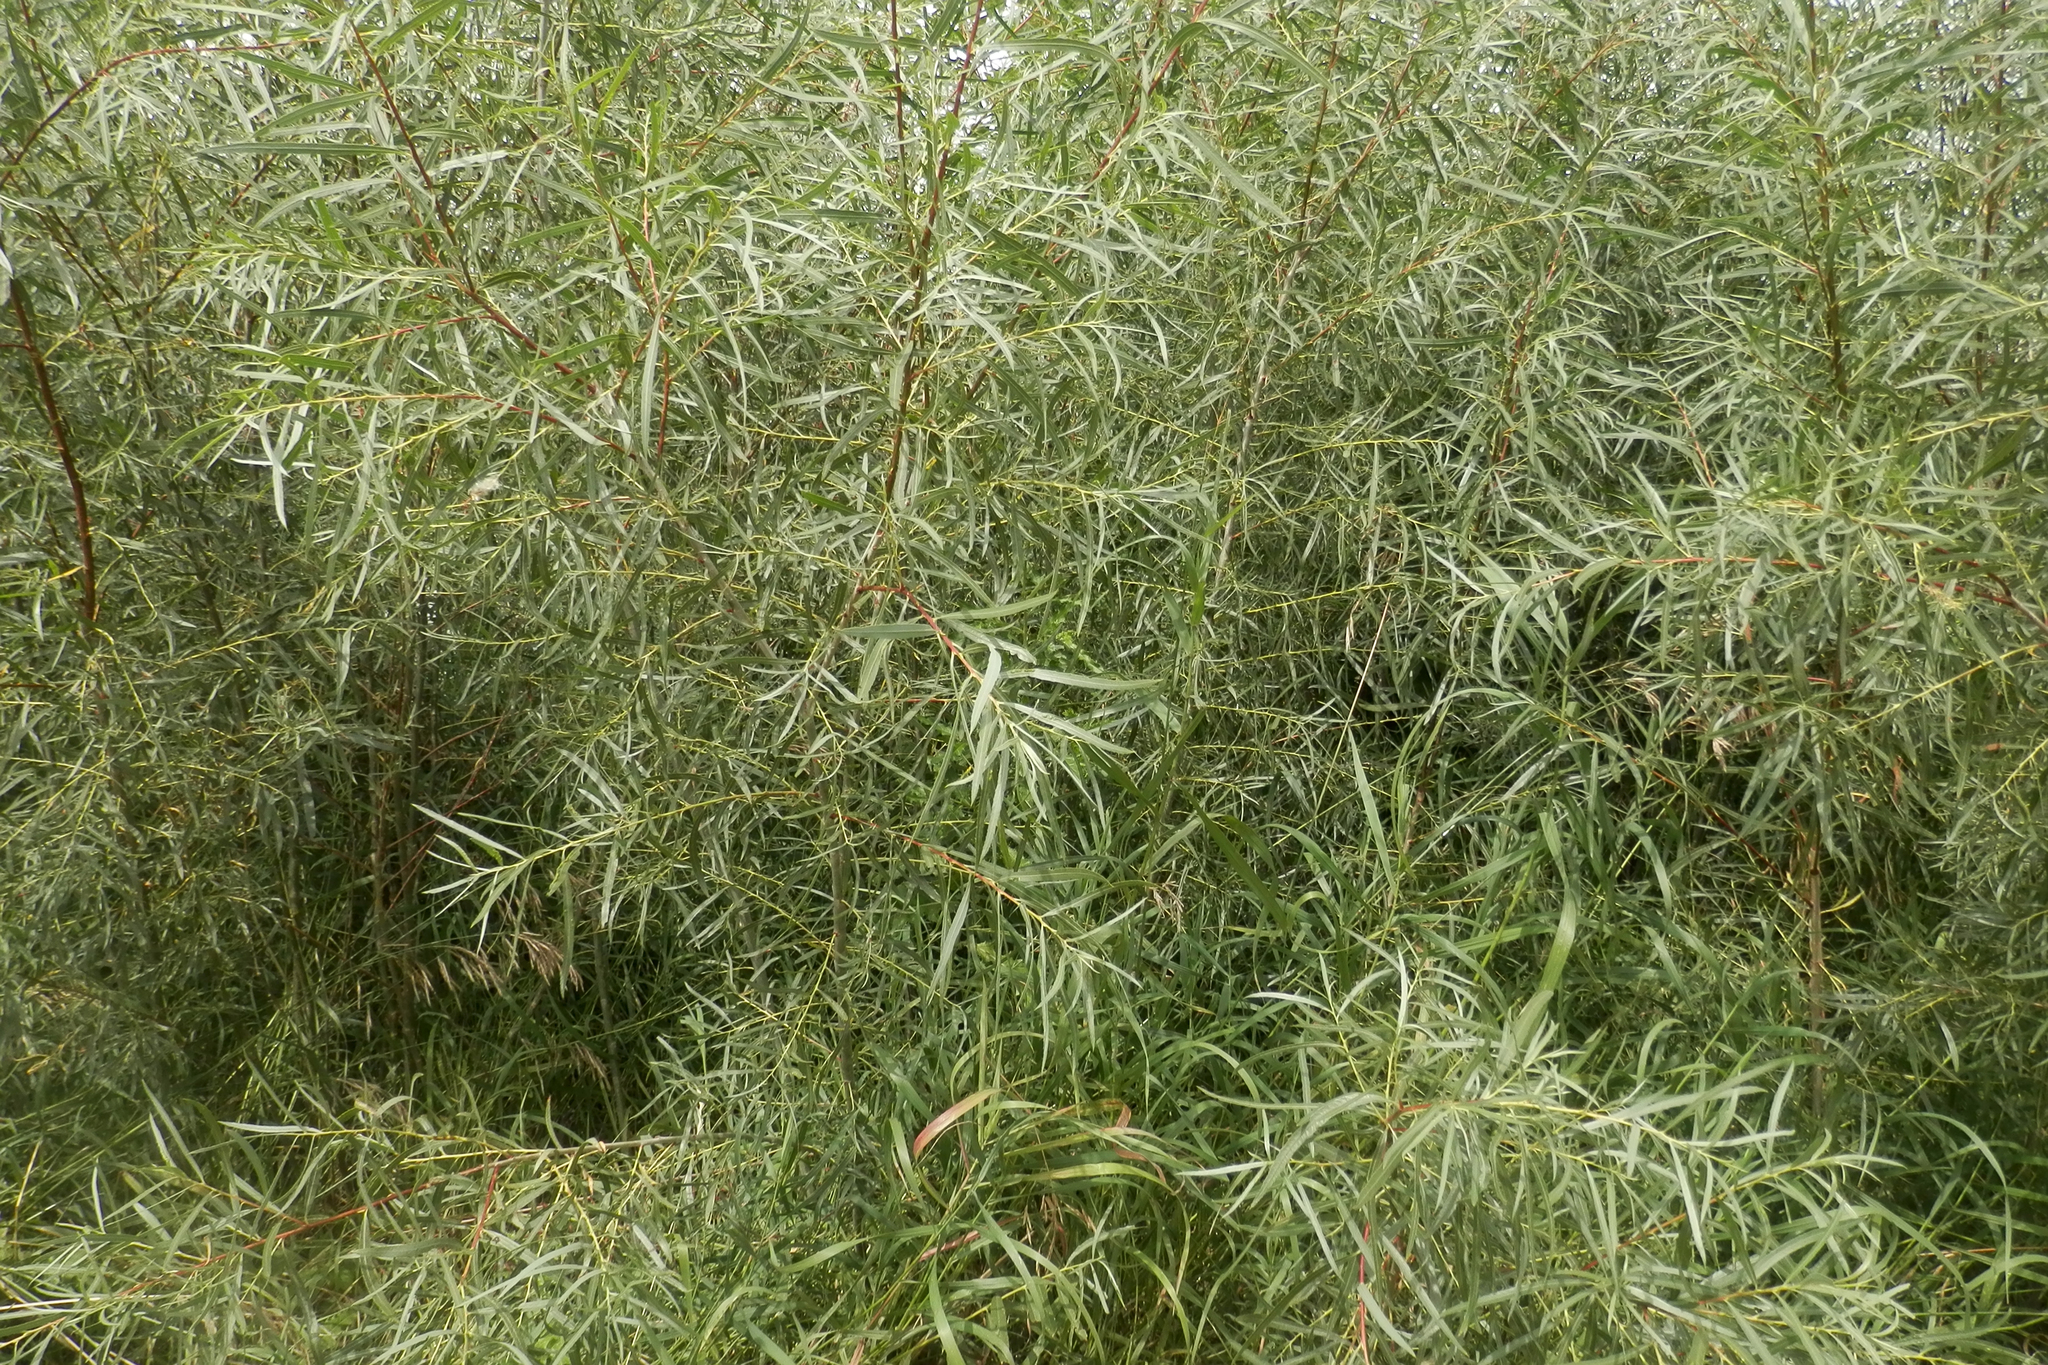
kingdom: Plantae
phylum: Tracheophyta
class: Magnoliopsida
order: Malpighiales
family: Salicaceae
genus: Salix
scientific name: Salix interior
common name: Sandbar willow
